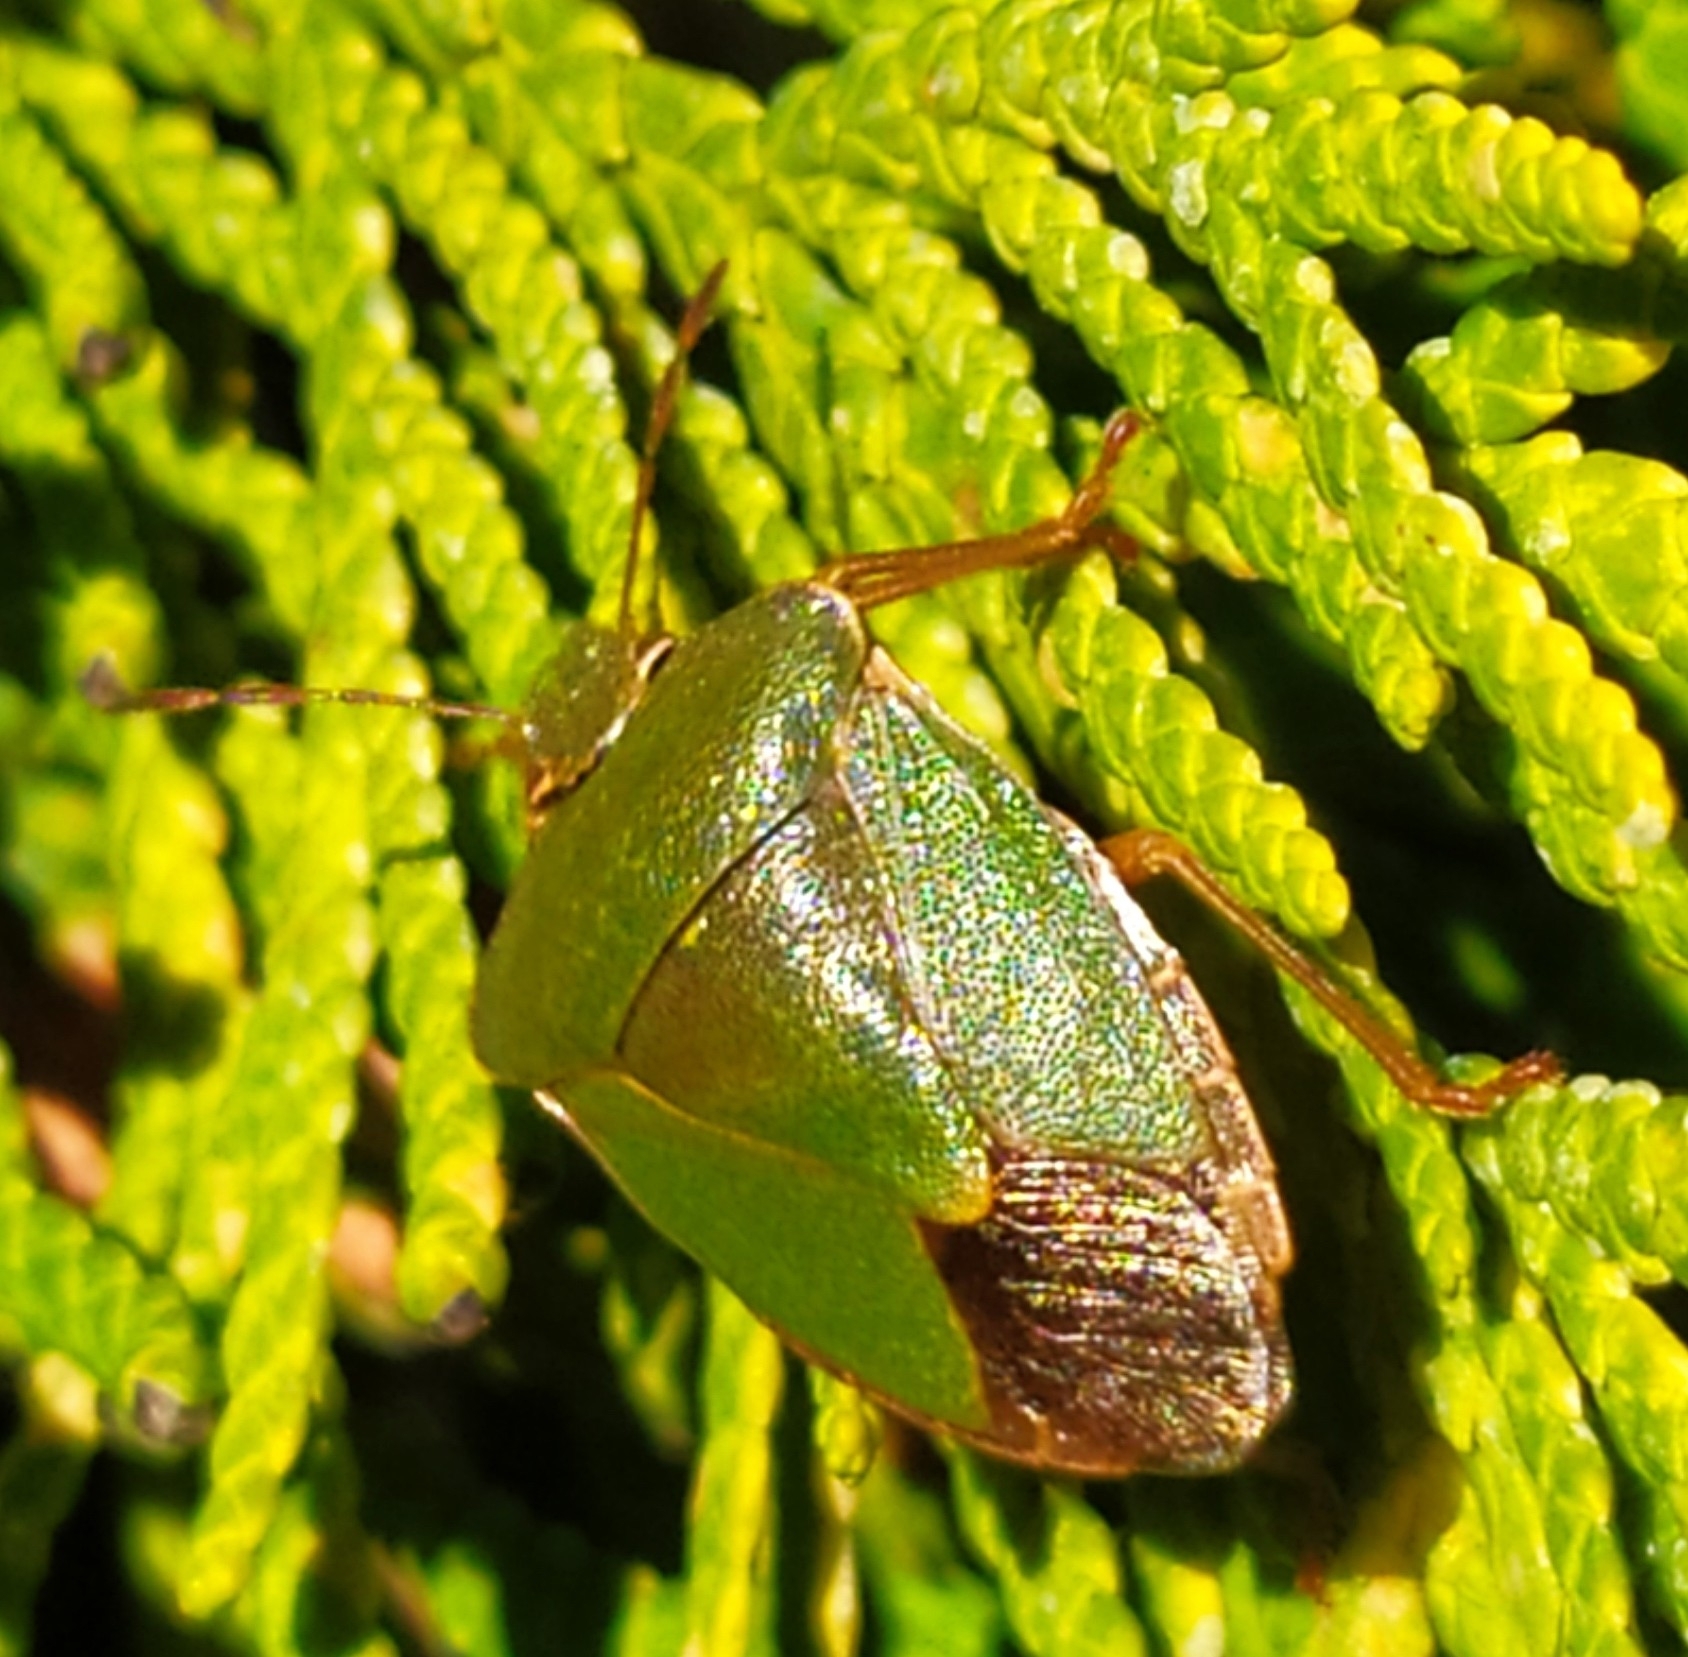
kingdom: Animalia
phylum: Arthropoda
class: Insecta
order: Hemiptera
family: Pentatomidae
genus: Palomena
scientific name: Palomena prasina
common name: Green shieldbug
